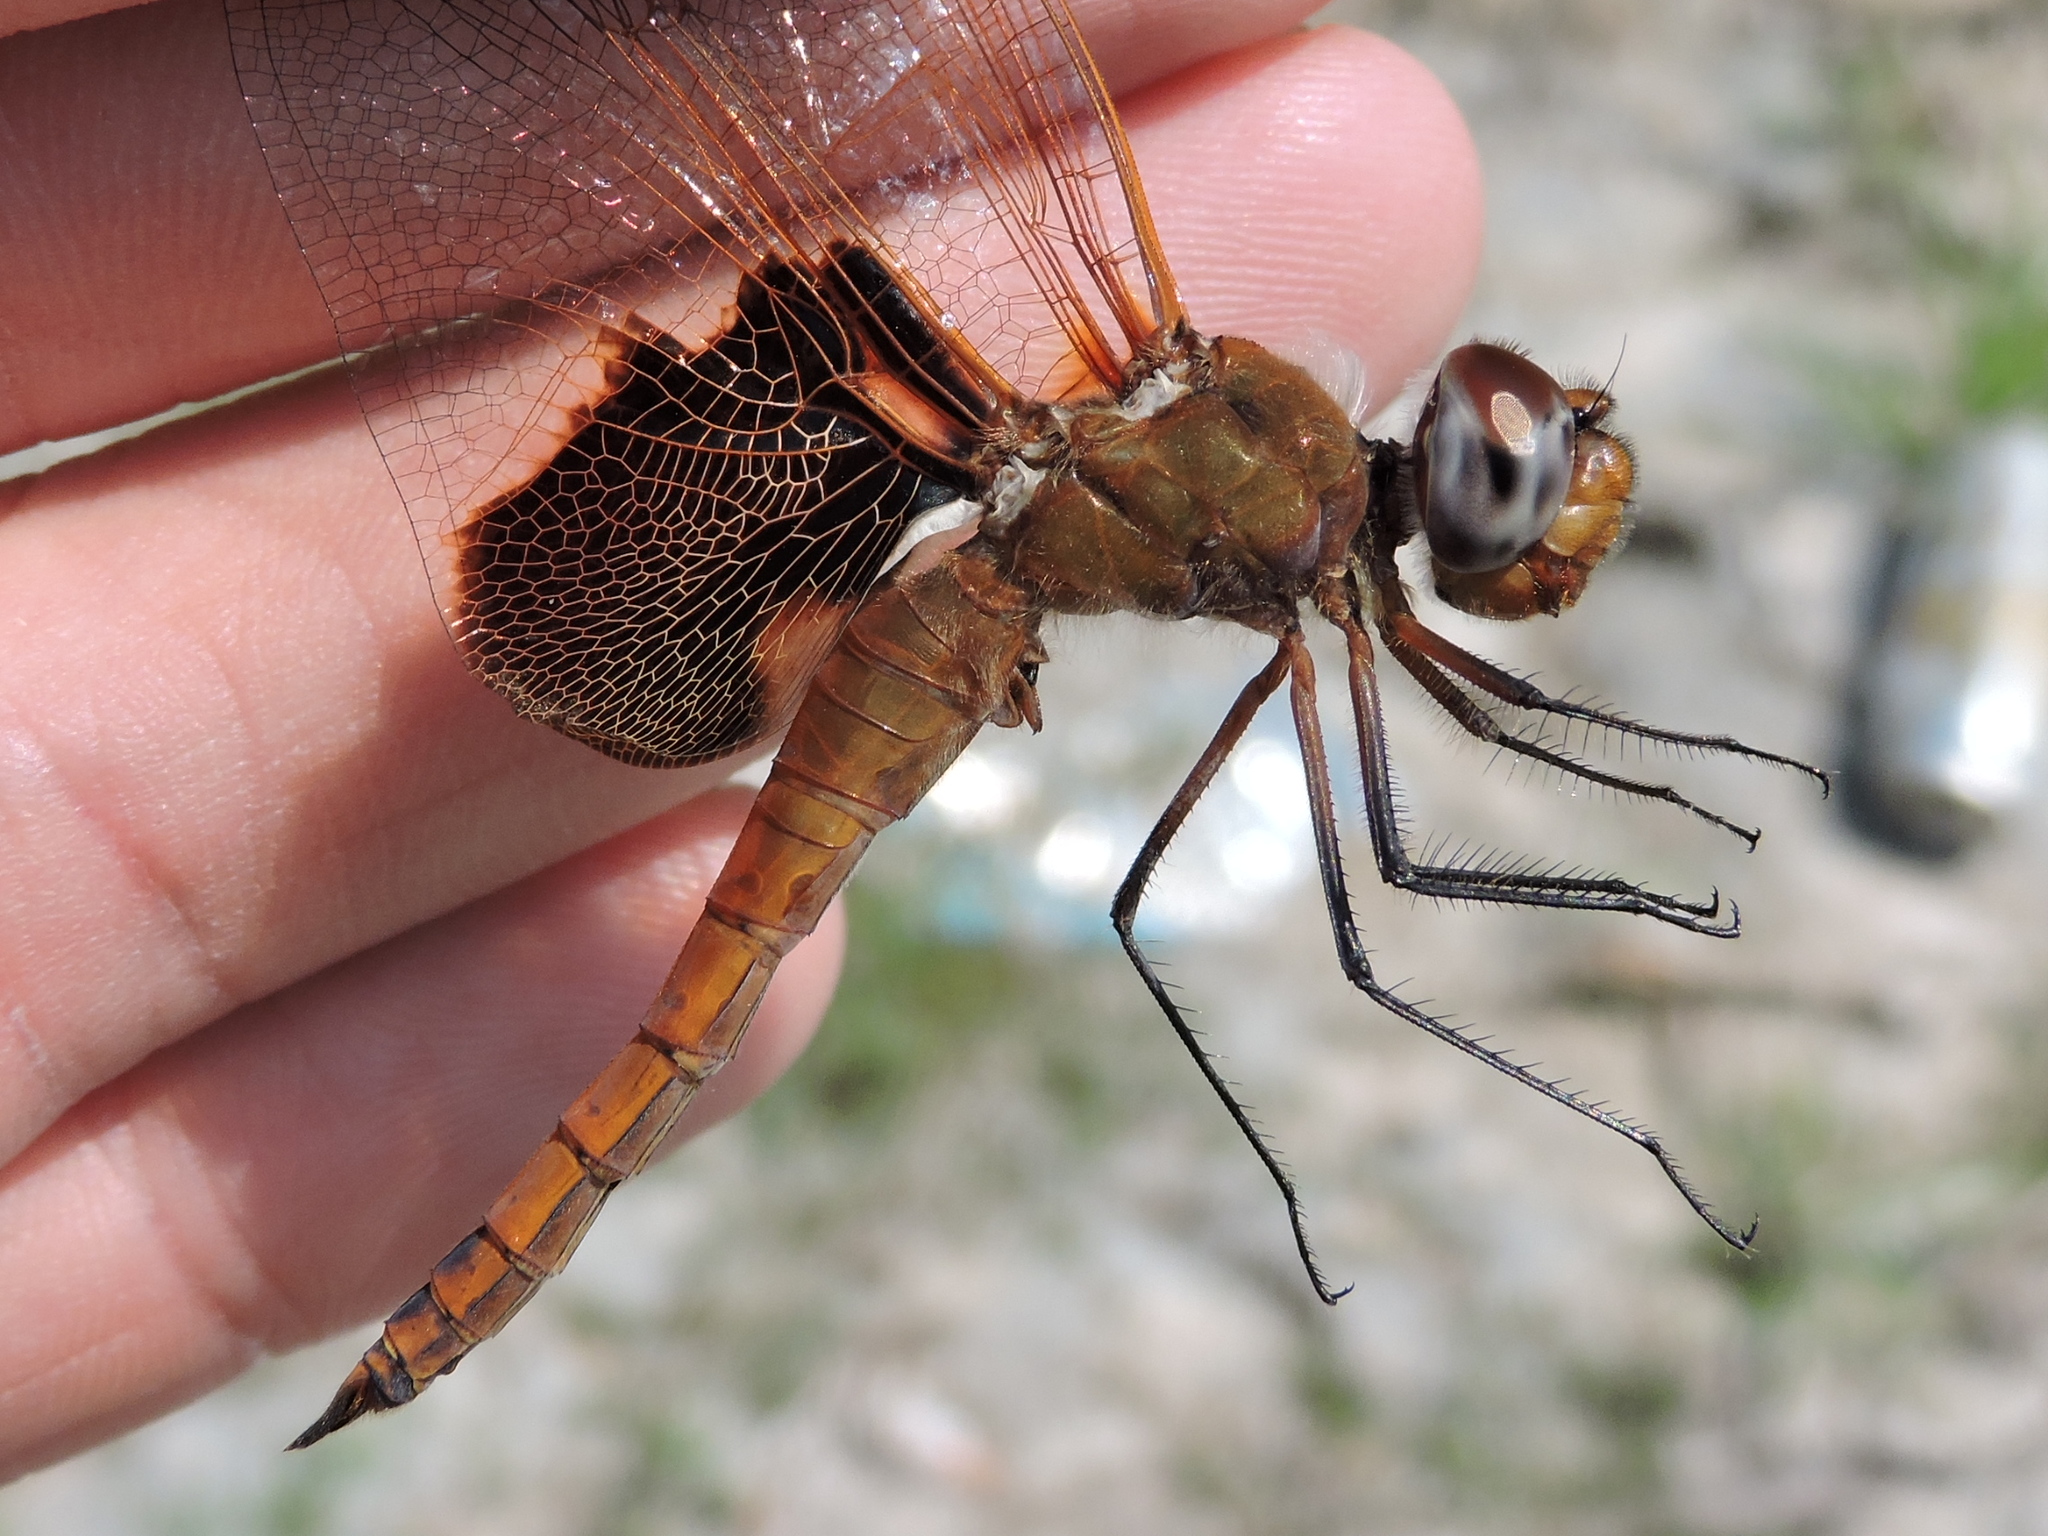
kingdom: Animalia
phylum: Arthropoda
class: Insecta
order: Odonata
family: Libellulidae
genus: Tramea
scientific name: Tramea onusta
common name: Red saddlebags
